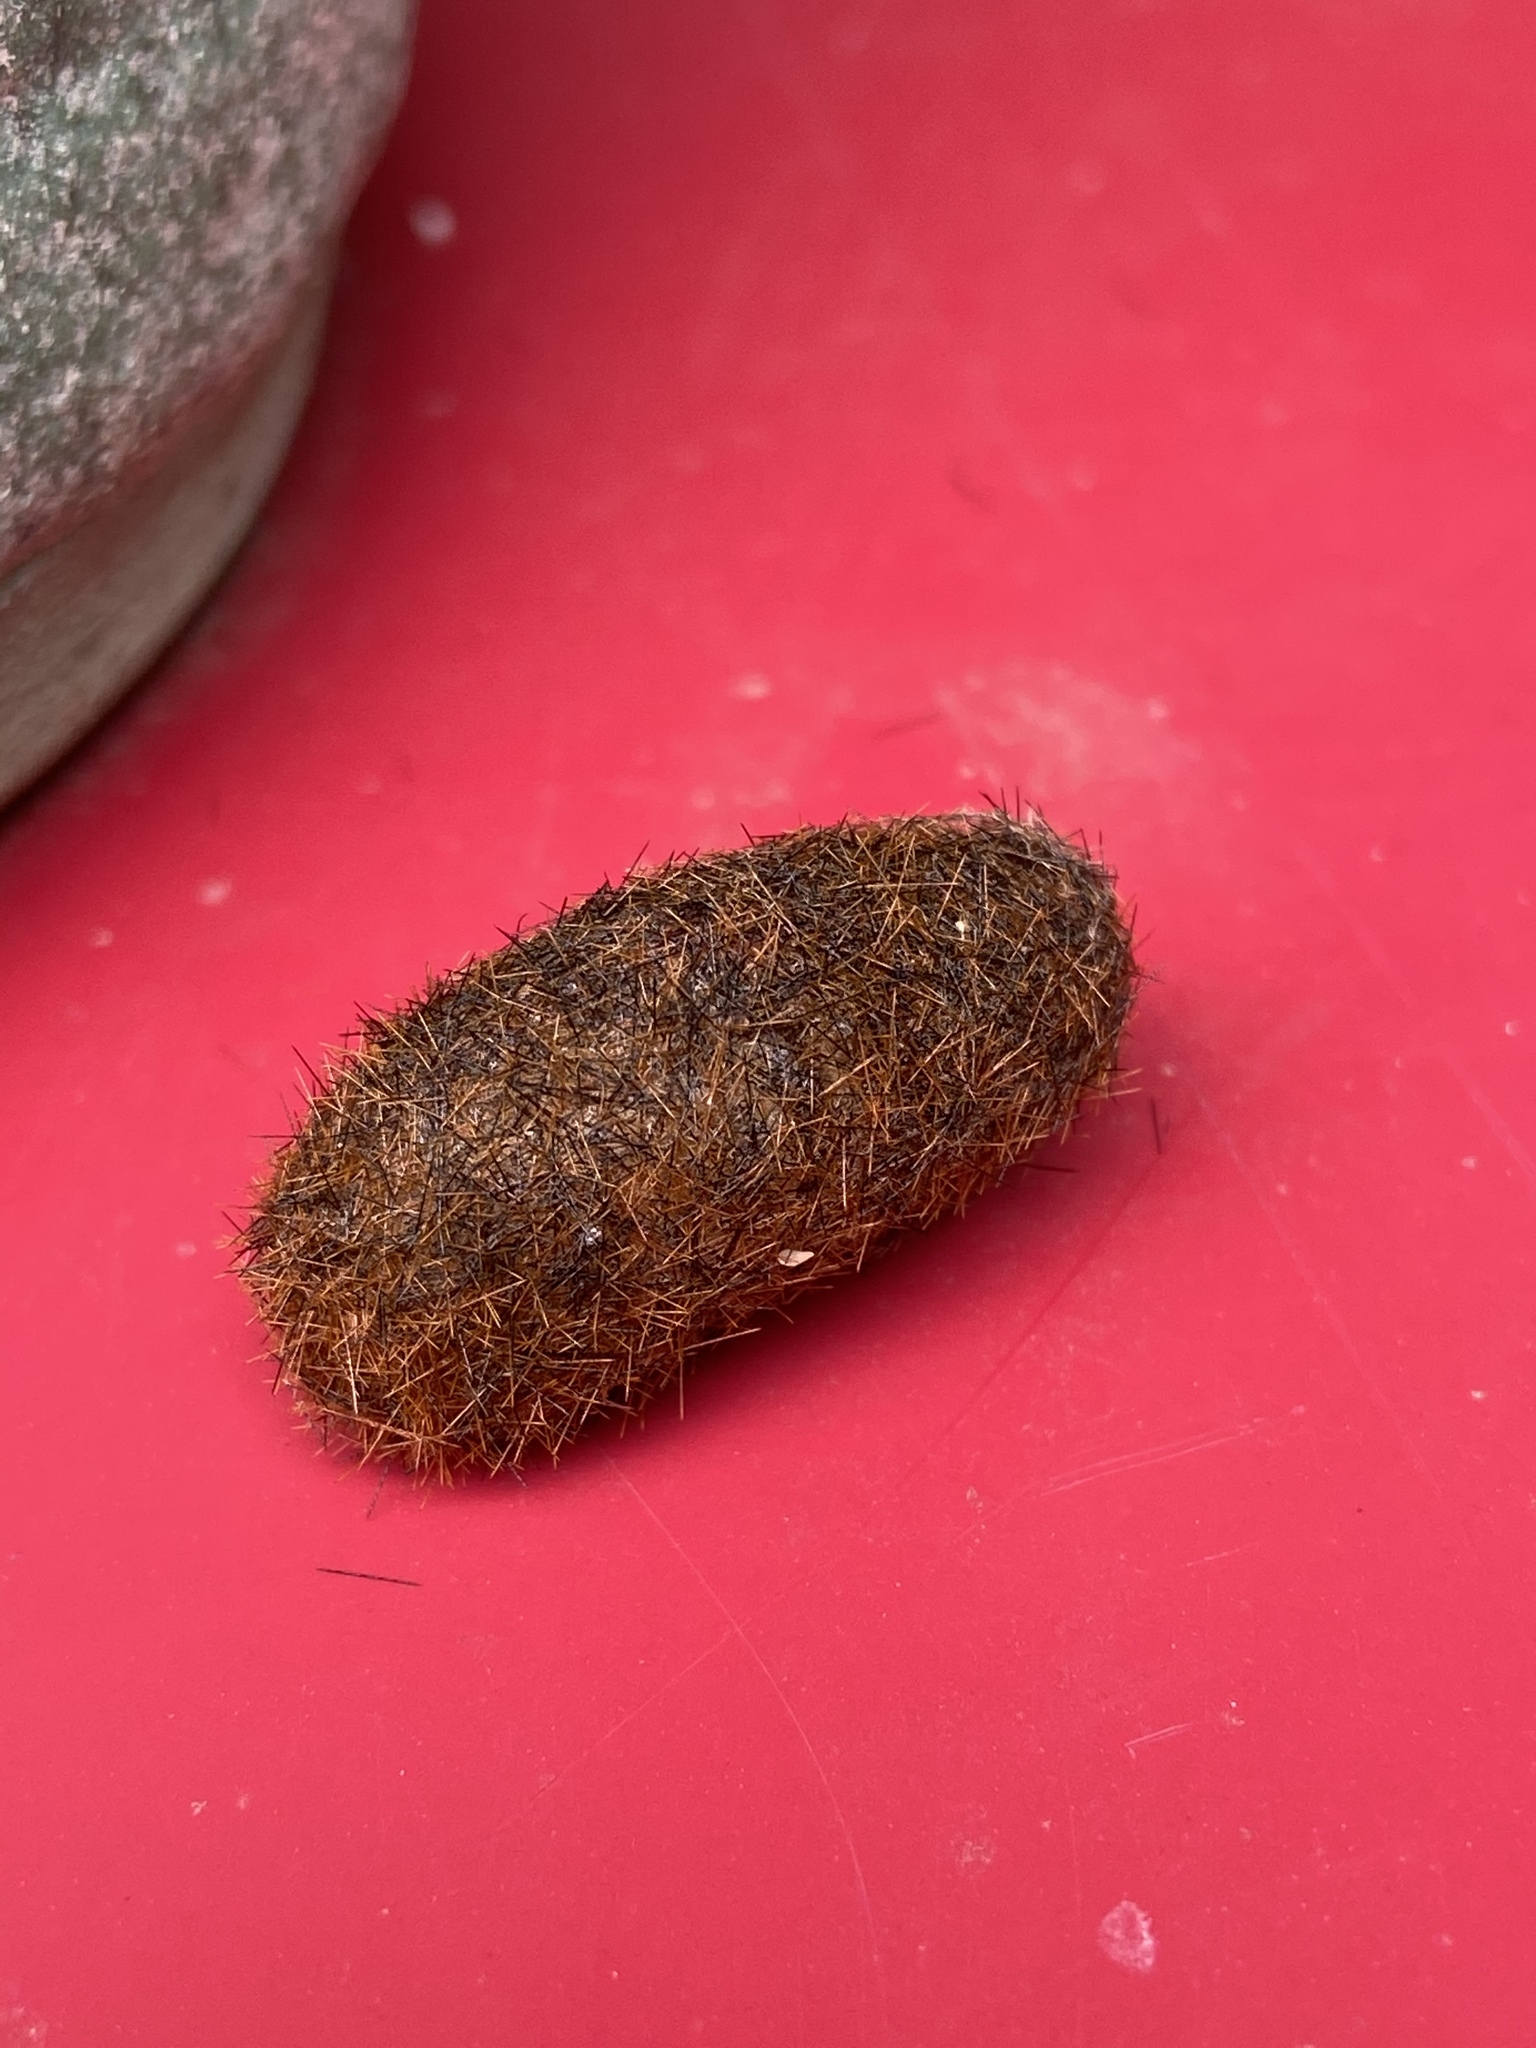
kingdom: Animalia
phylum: Arthropoda
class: Insecta
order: Lepidoptera
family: Erebidae
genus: Pyrrharctia
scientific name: Pyrrharctia isabella
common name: Isabella tiger moth
